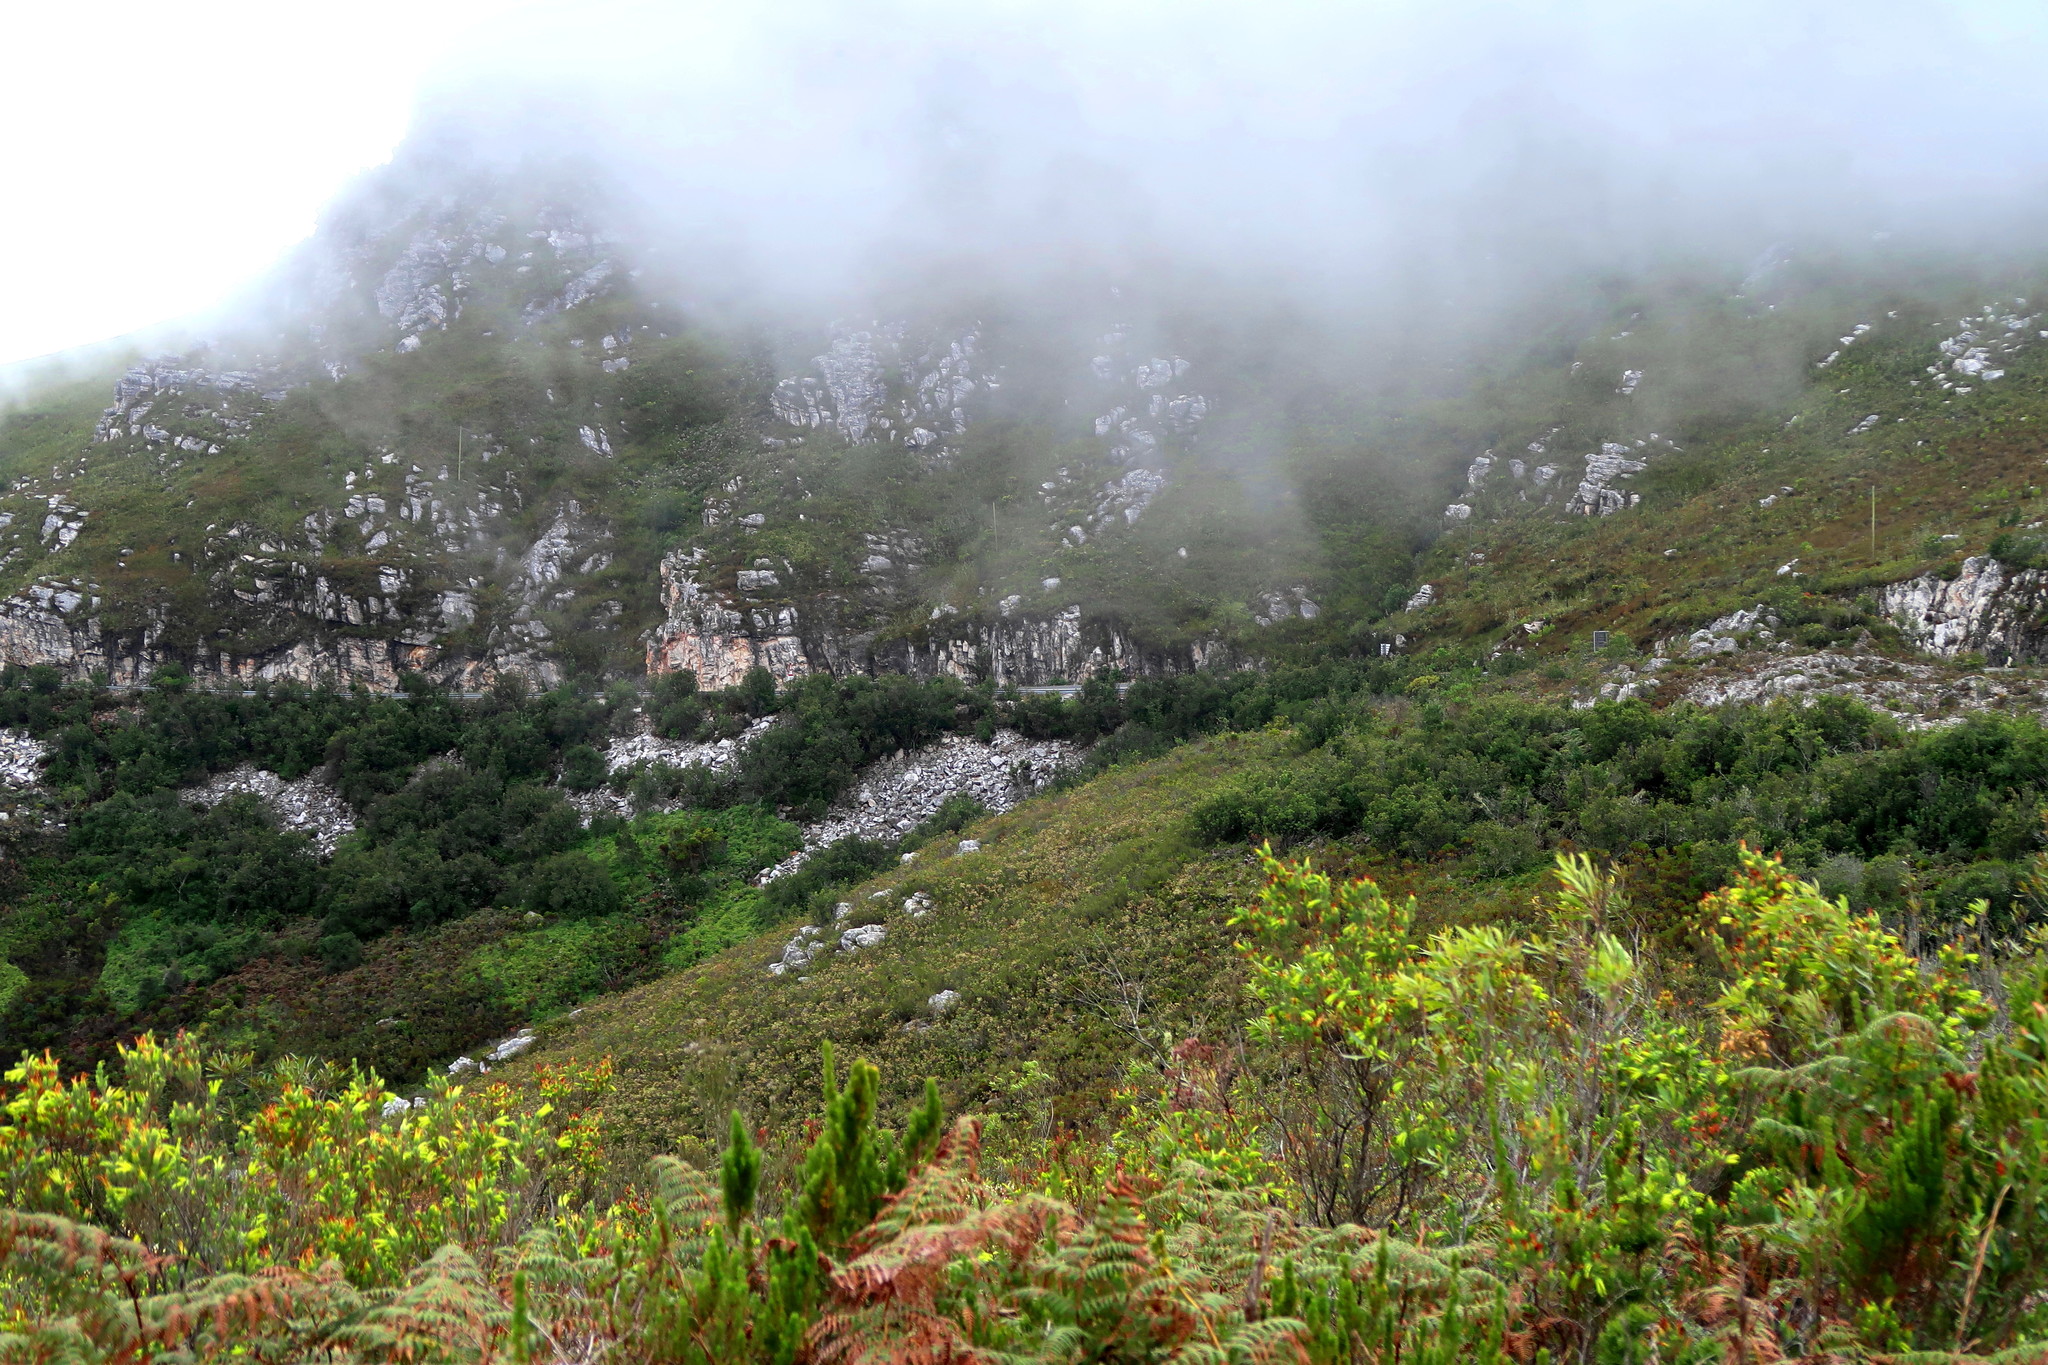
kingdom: Plantae
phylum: Tracheophyta
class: Magnoliopsida
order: Ericales
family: Ericaceae
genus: Erica
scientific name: Erica unicolor
